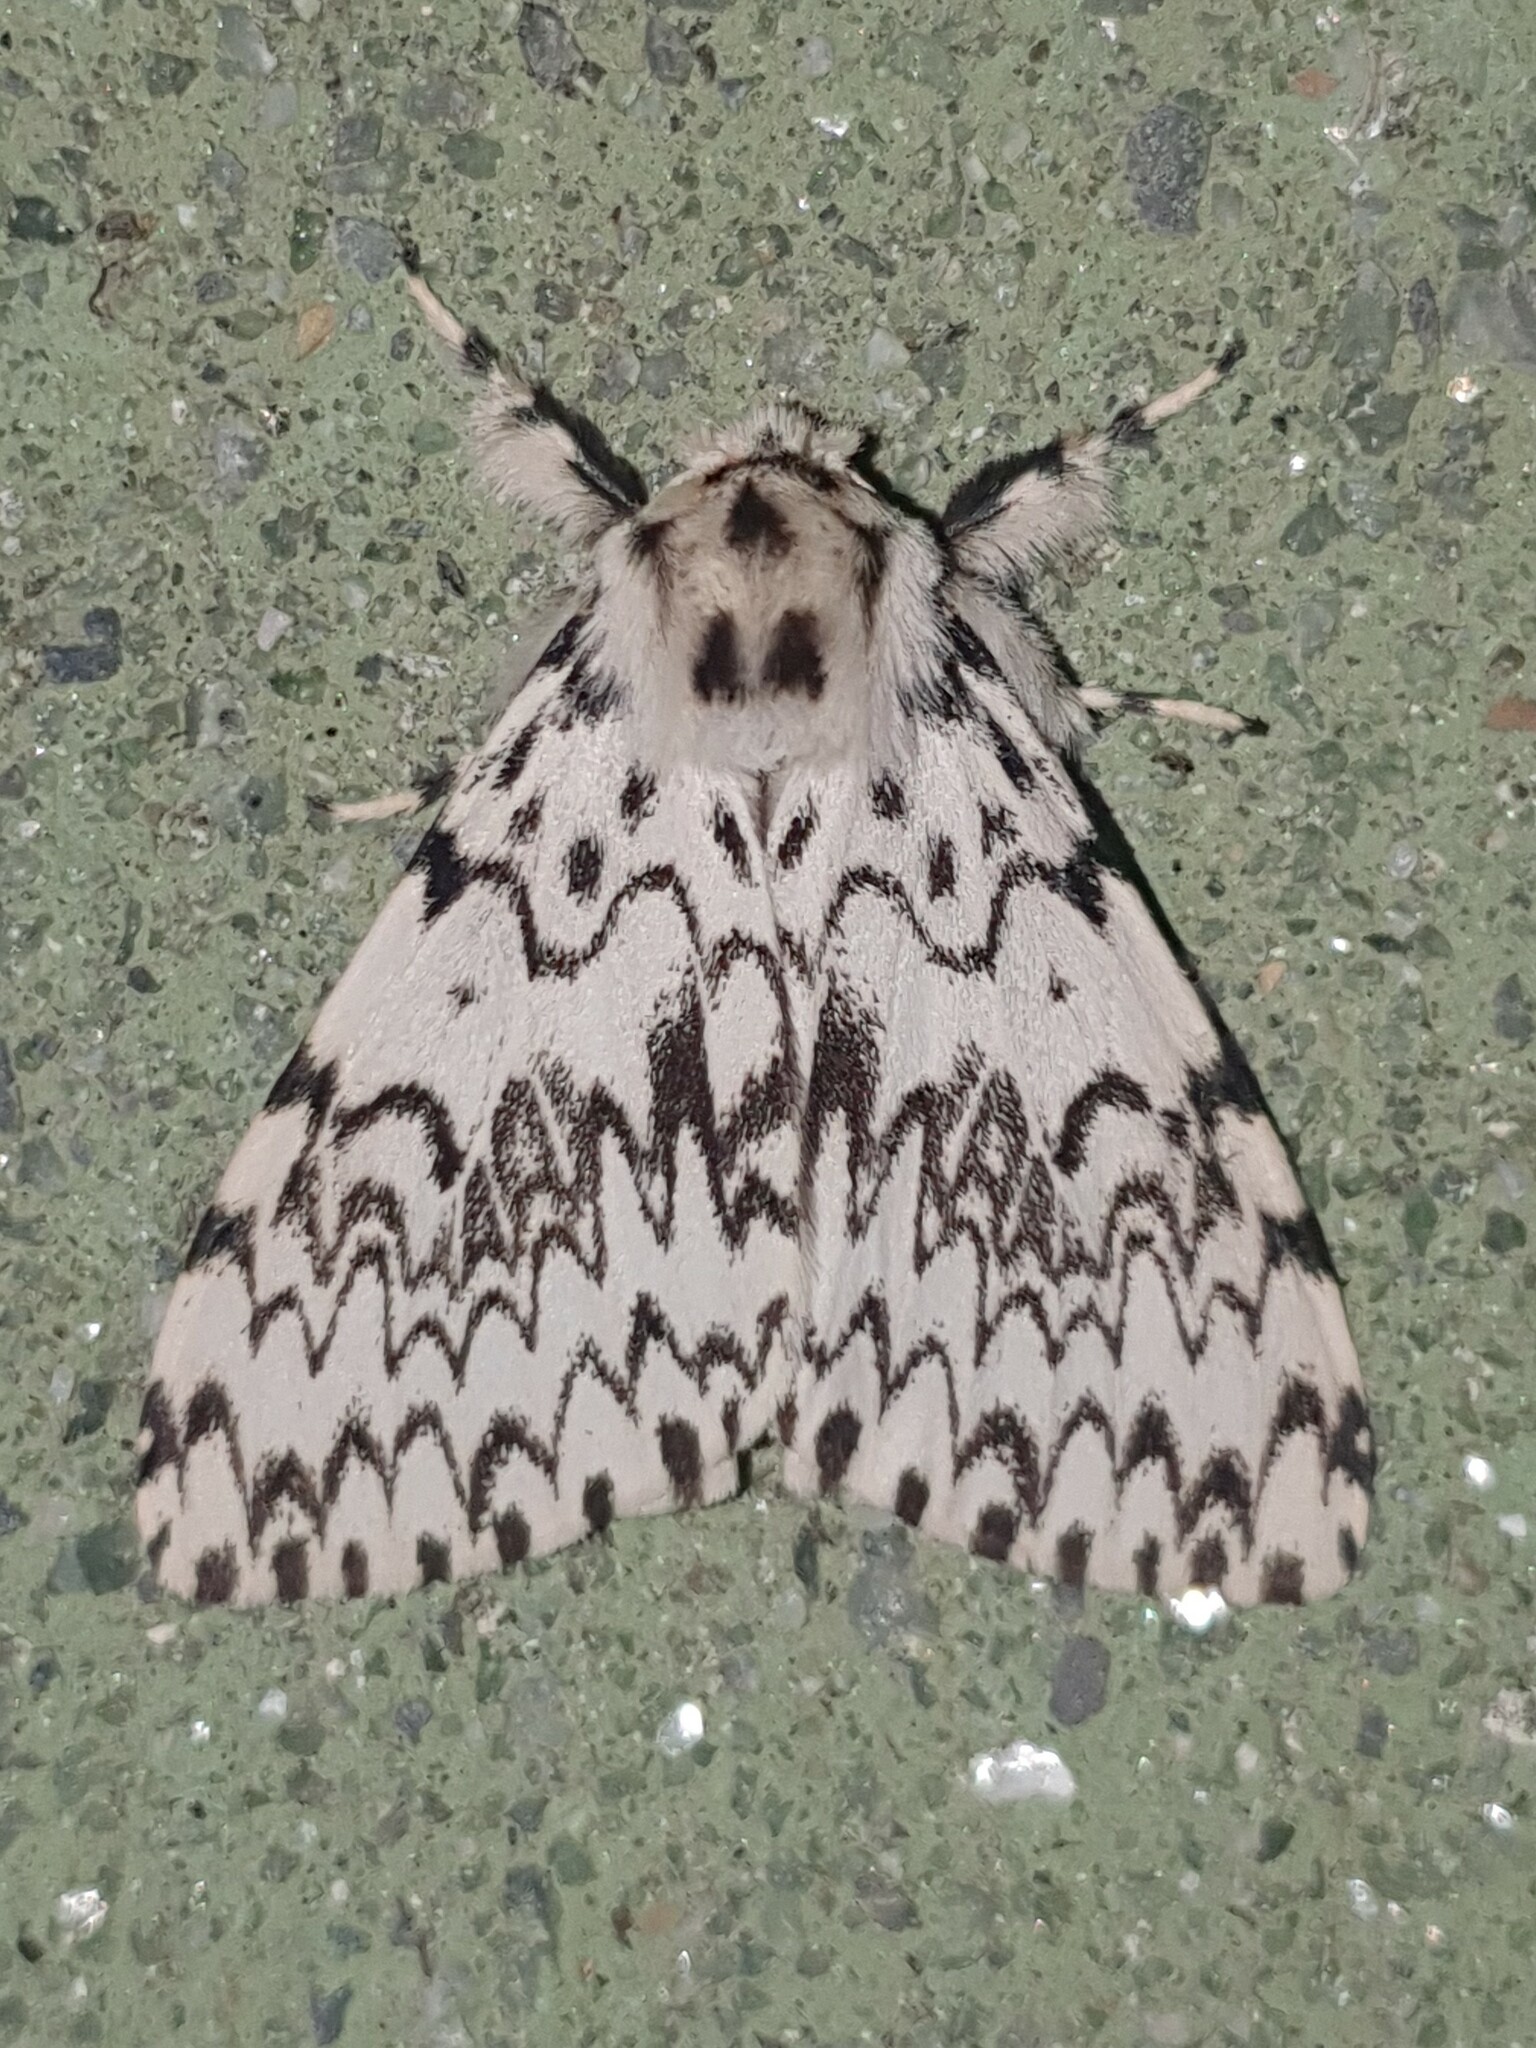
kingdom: Animalia
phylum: Arthropoda
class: Insecta
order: Lepidoptera
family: Erebidae
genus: Lymantria
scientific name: Lymantria monacha
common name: Black arches
